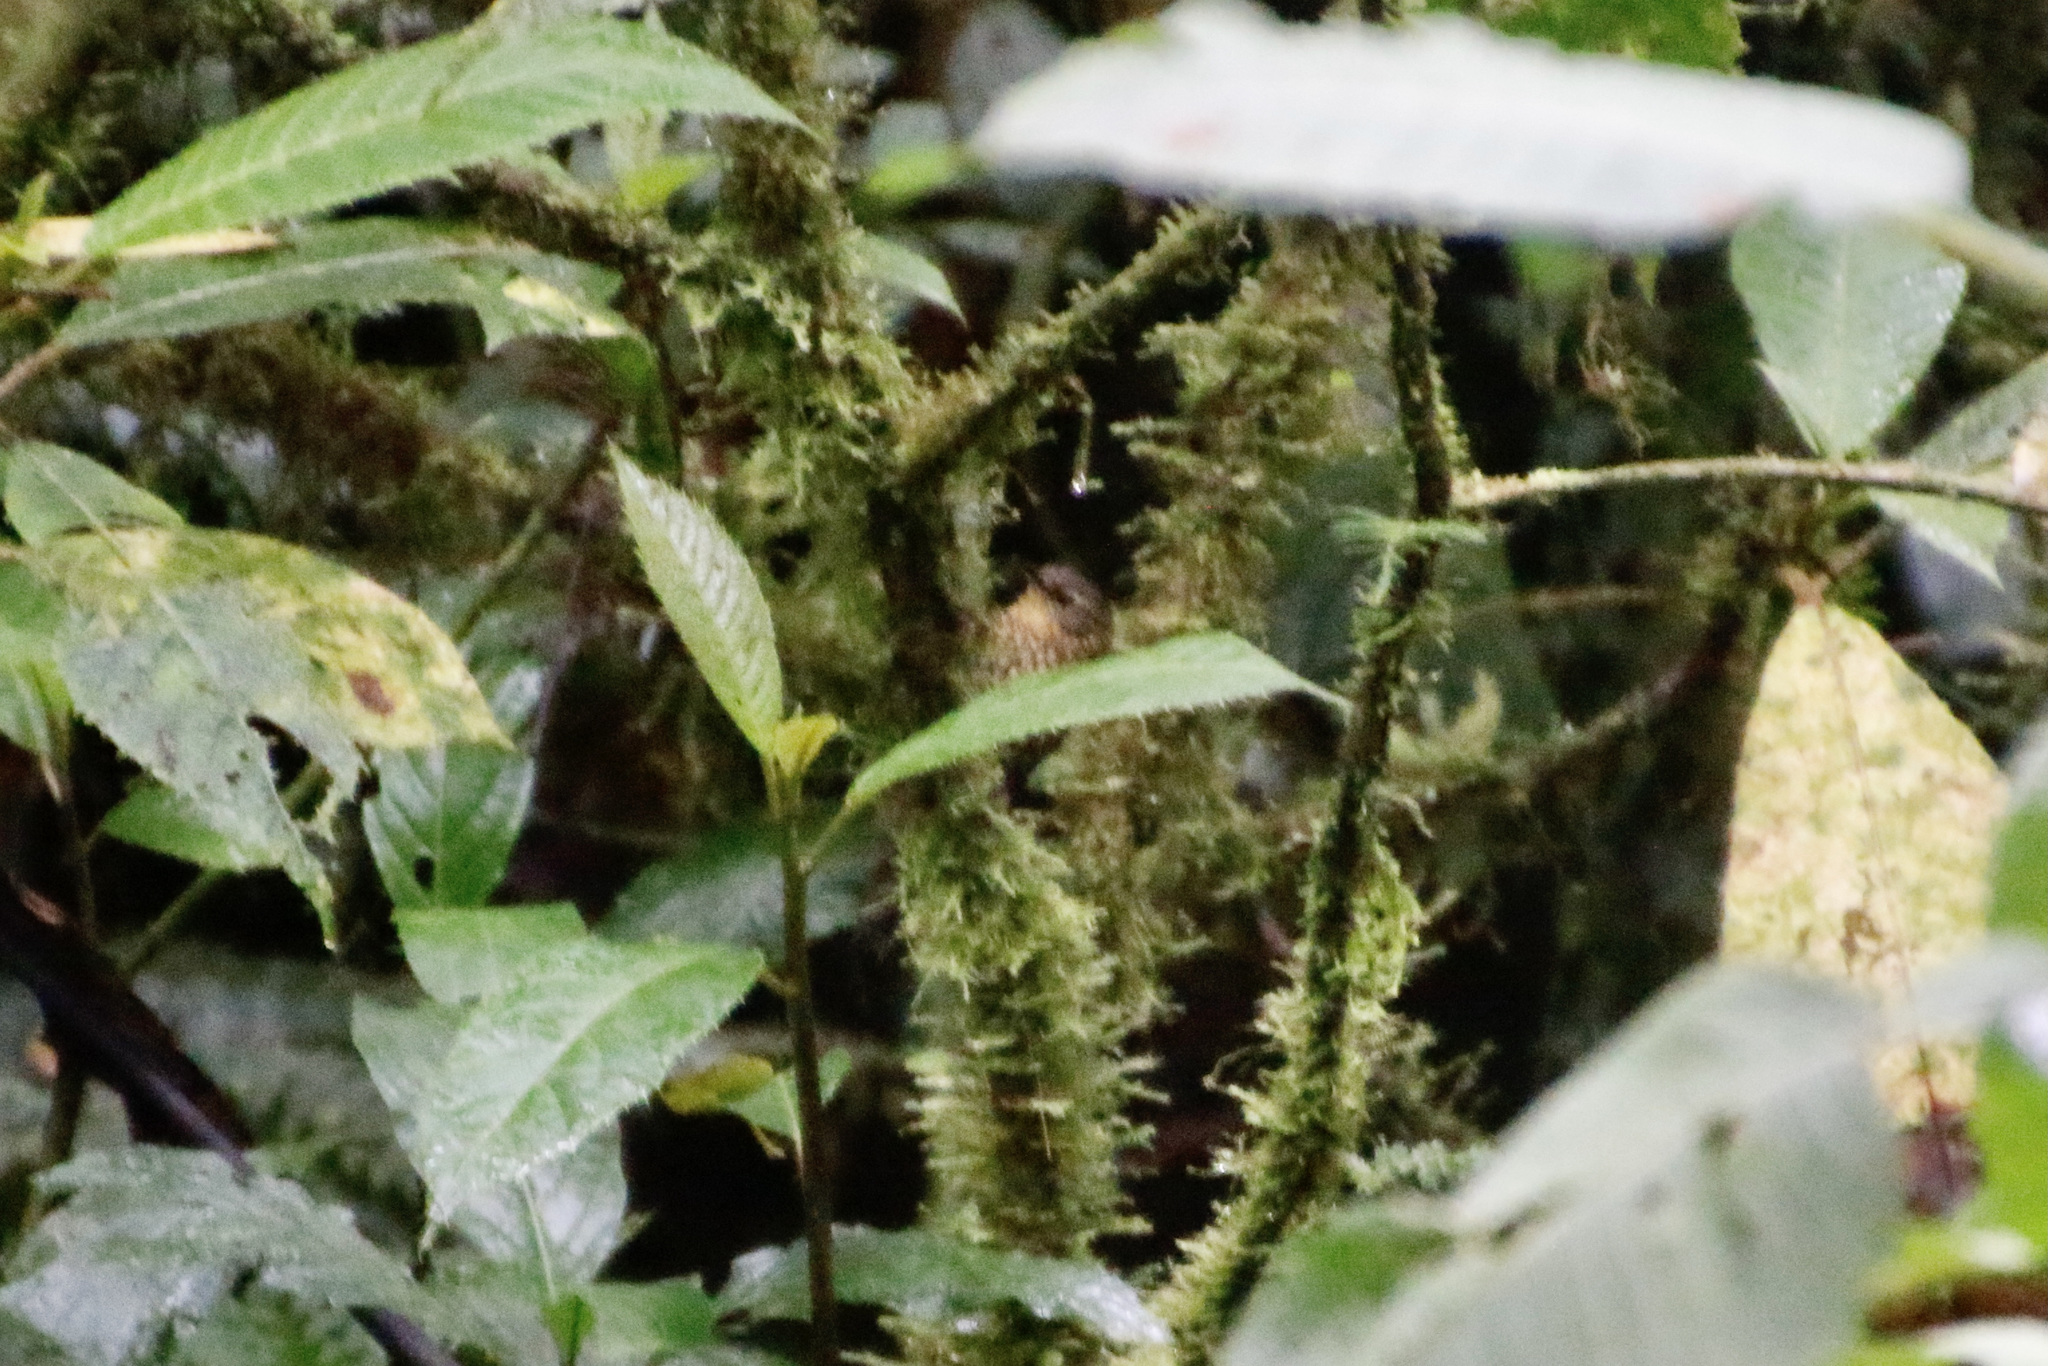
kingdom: Animalia
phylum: Chordata
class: Aves
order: Passeriformes
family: Furnariidae
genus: Premnoplex
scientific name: Premnoplex brunnescens
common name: Spotted barbtail
